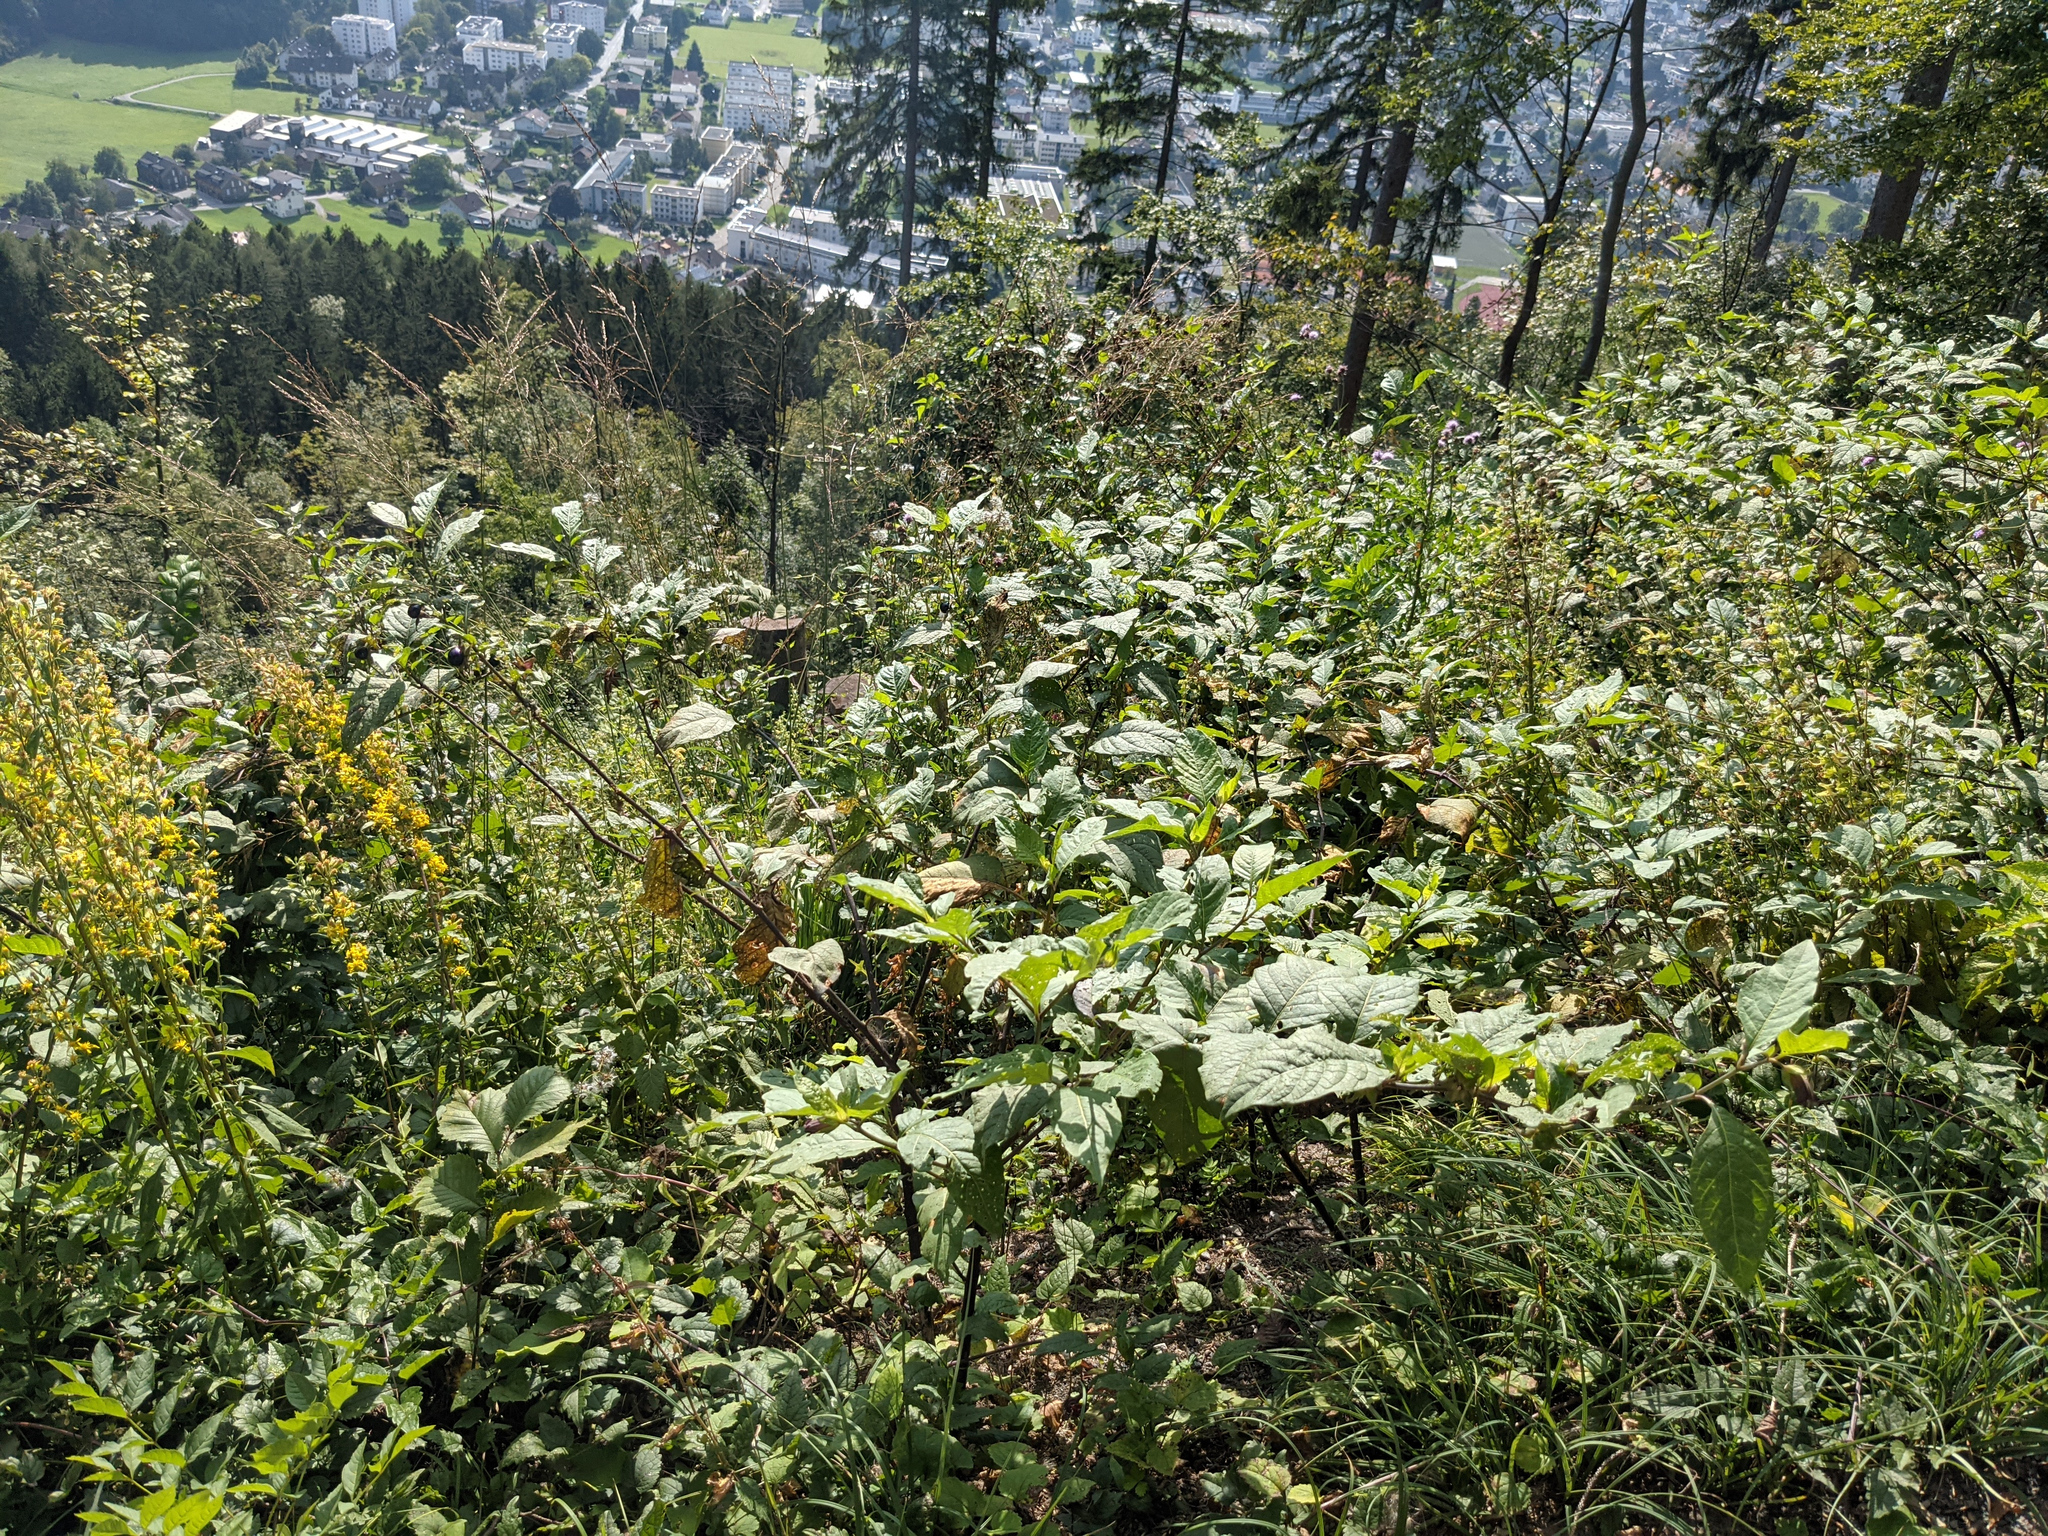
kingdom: Plantae
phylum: Tracheophyta
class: Magnoliopsida
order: Solanales
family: Solanaceae
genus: Atropa
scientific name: Atropa belladonna
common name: Deadly nightshade
